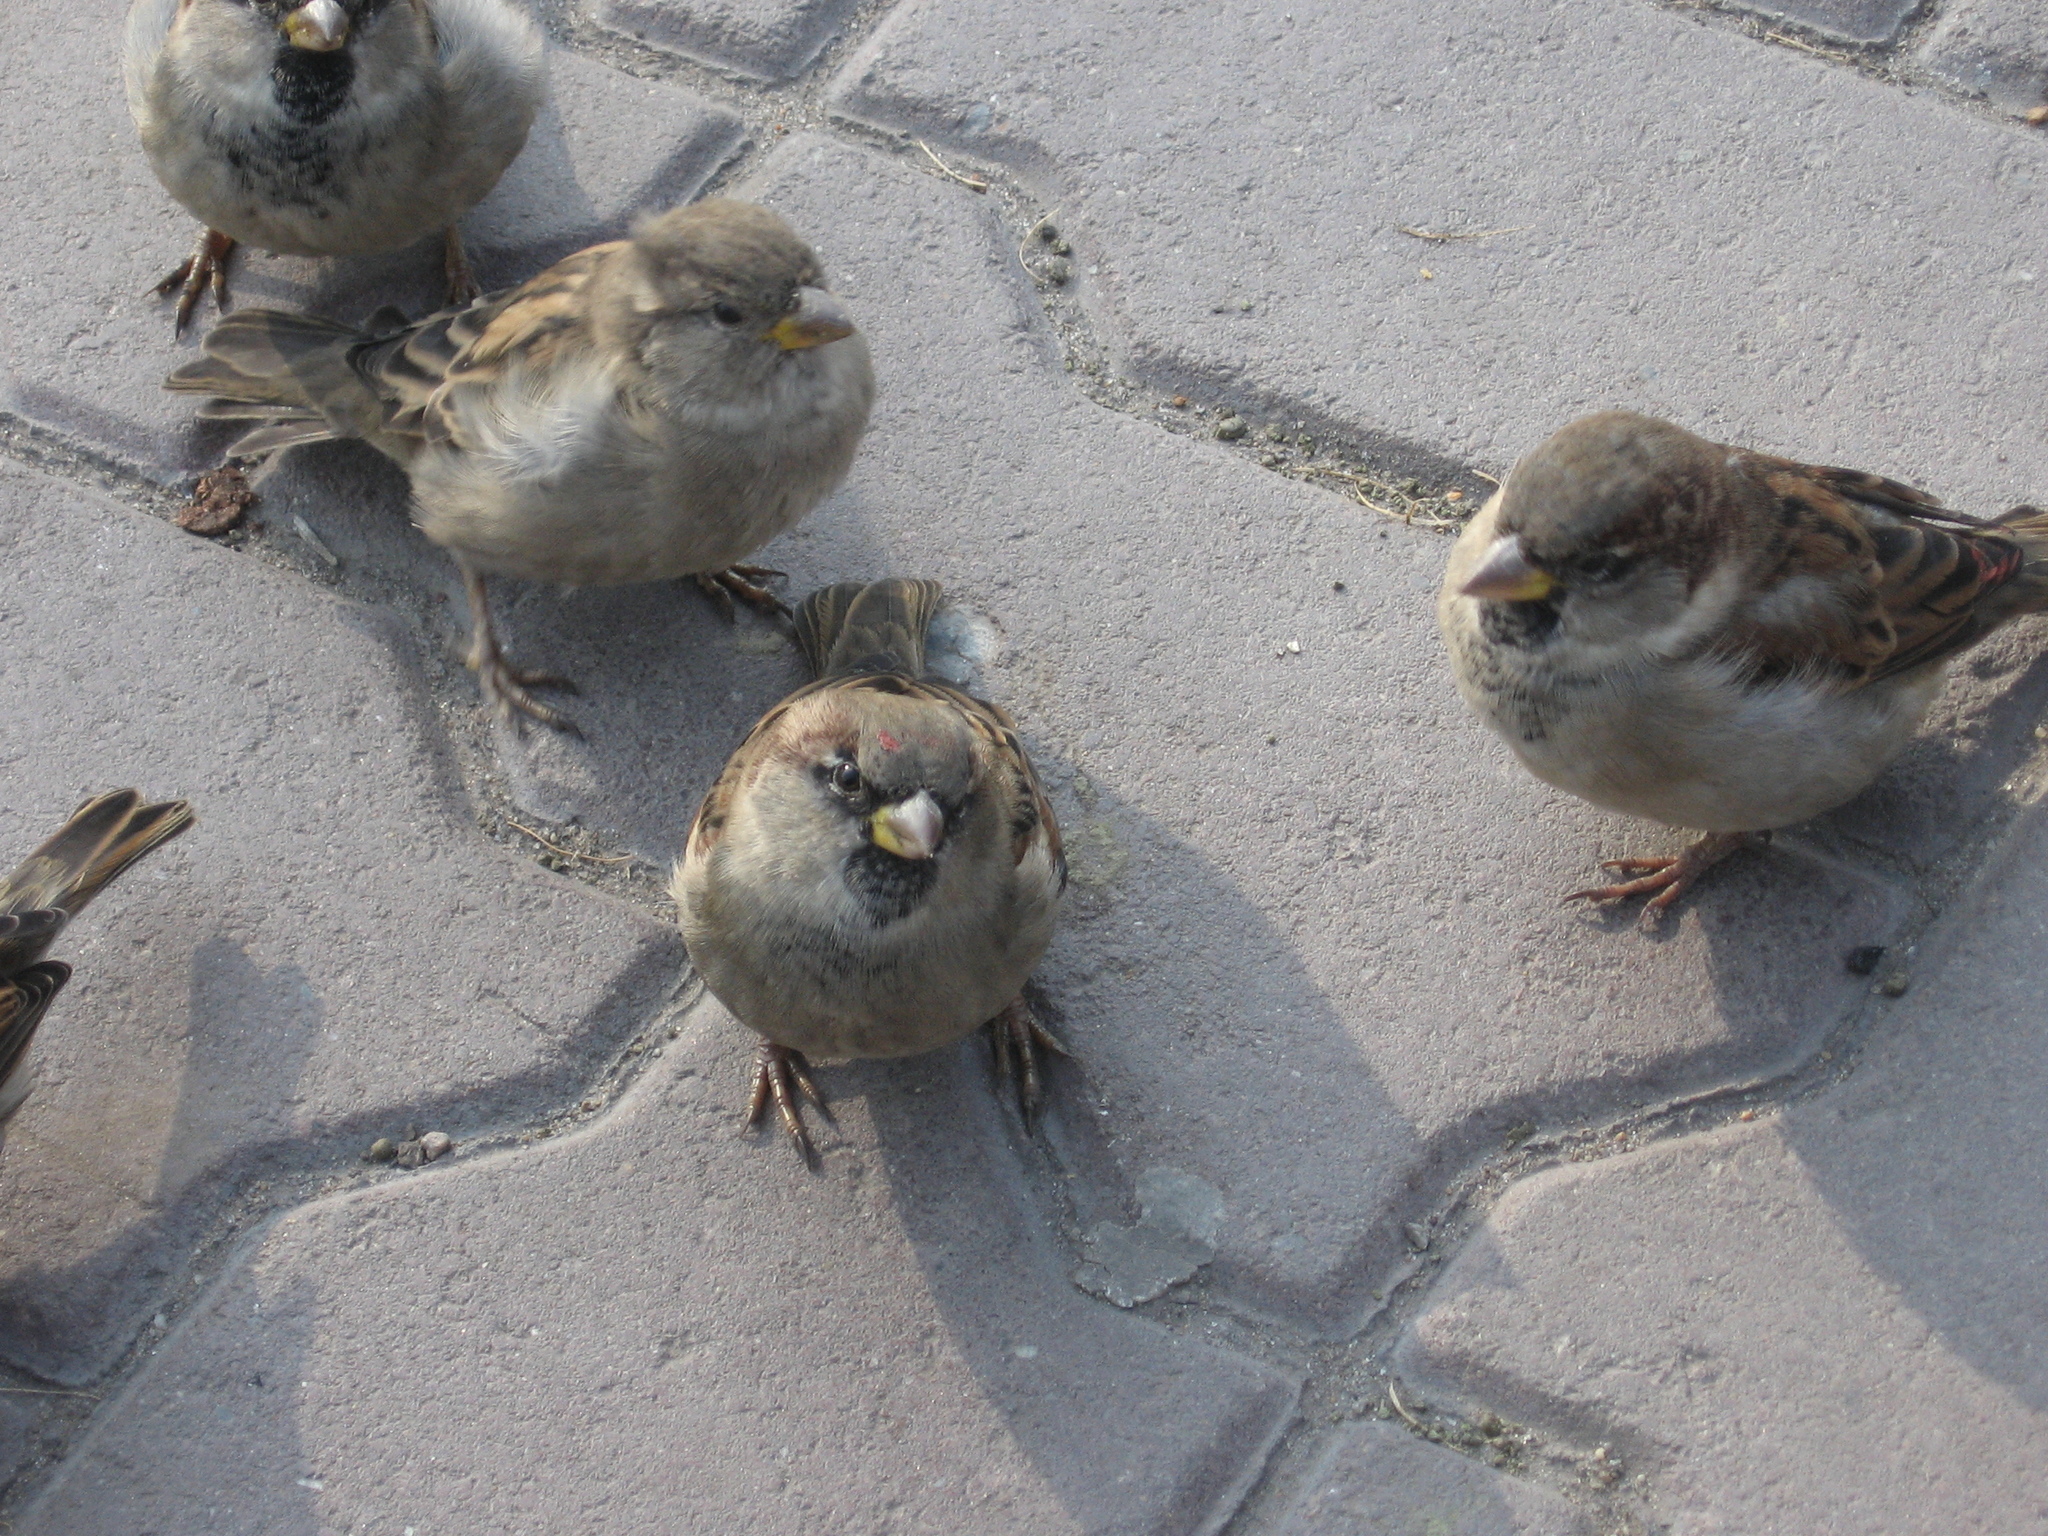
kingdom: Animalia
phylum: Chordata
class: Aves
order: Passeriformes
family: Passeridae
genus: Passer
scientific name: Passer domesticus
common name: House sparrow
